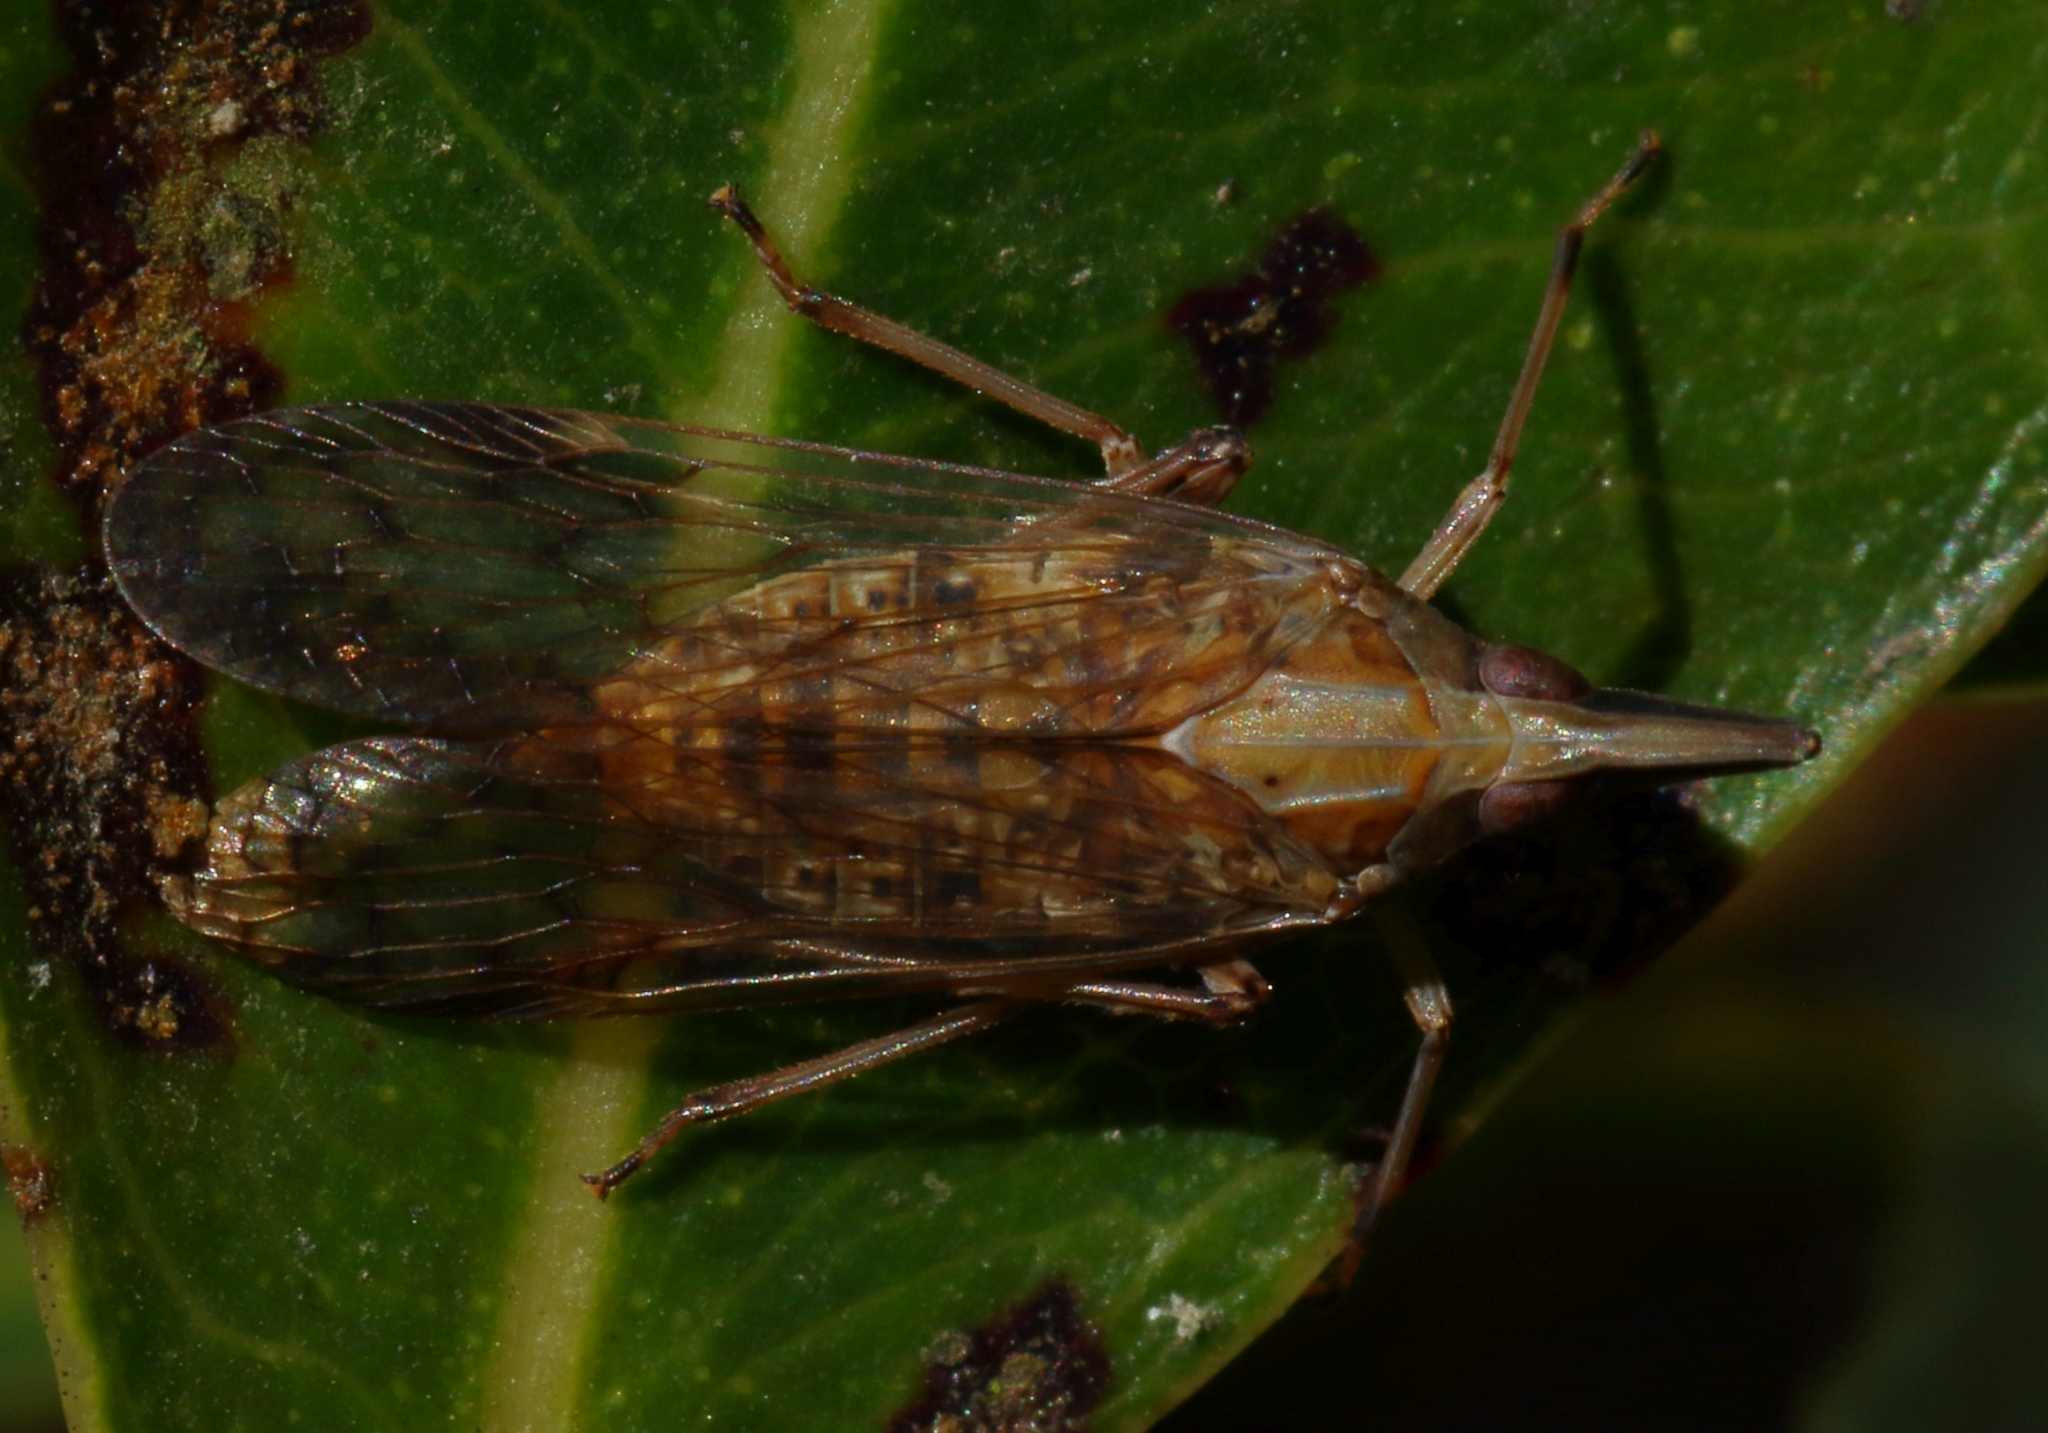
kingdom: Animalia
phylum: Arthropoda
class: Insecta
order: Hemiptera
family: Dictyopharidae
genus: Philotheria
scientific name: Philotheria conviva
